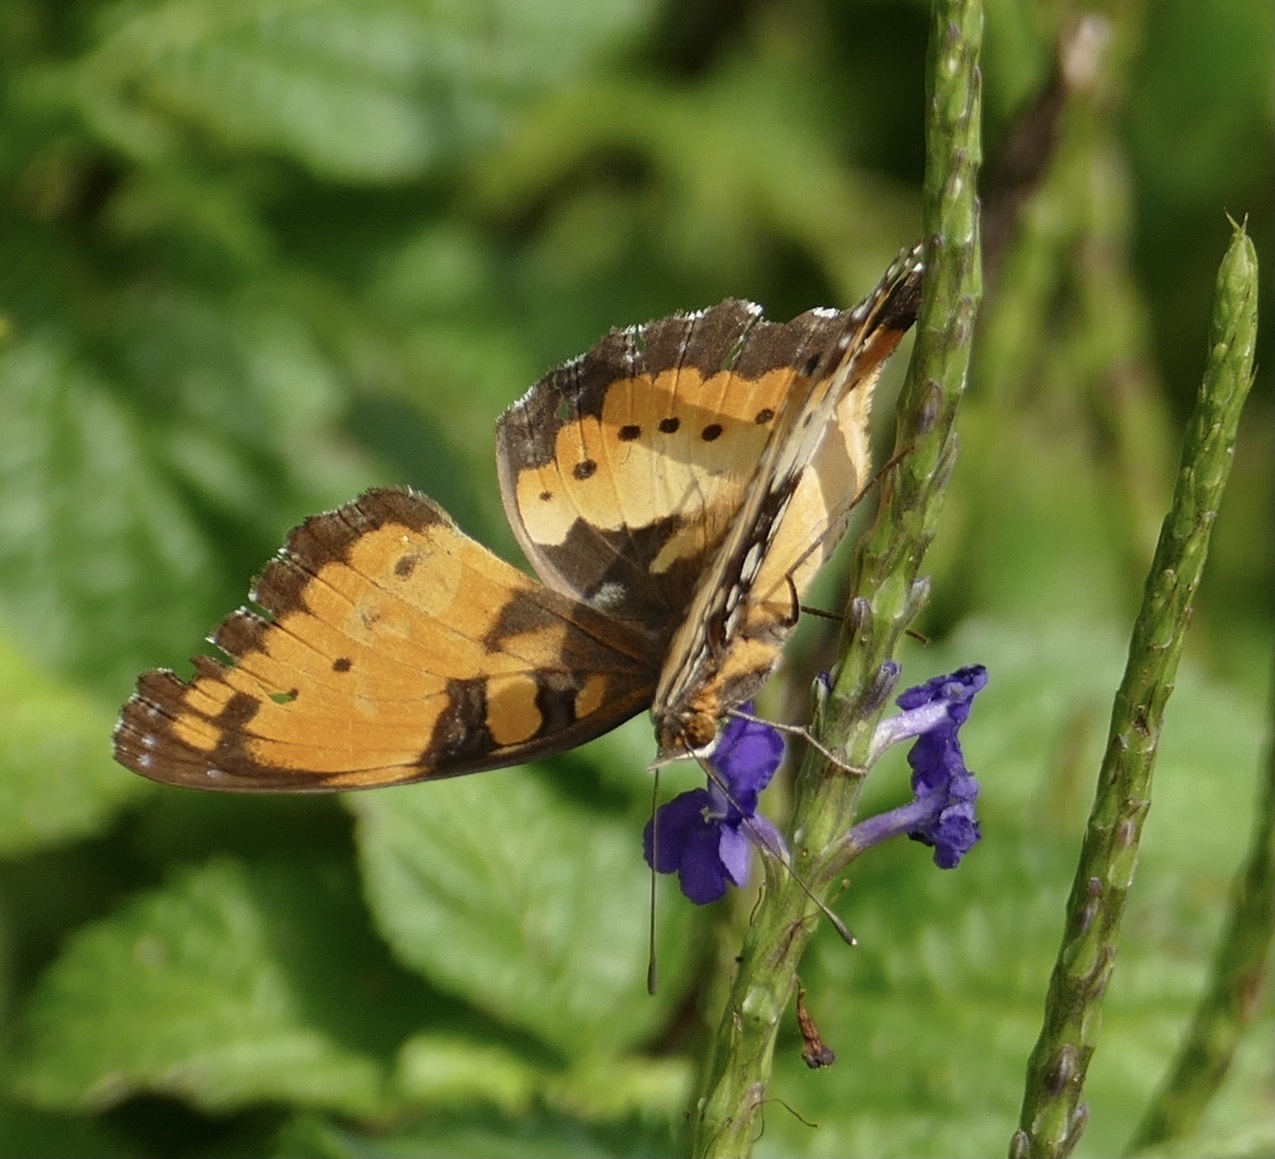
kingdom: Animalia
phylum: Arthropoda
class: Insecta
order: Lepidoptera
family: Nymphalidae
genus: Precis
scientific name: Precis octavia
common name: Gaudy commodore
